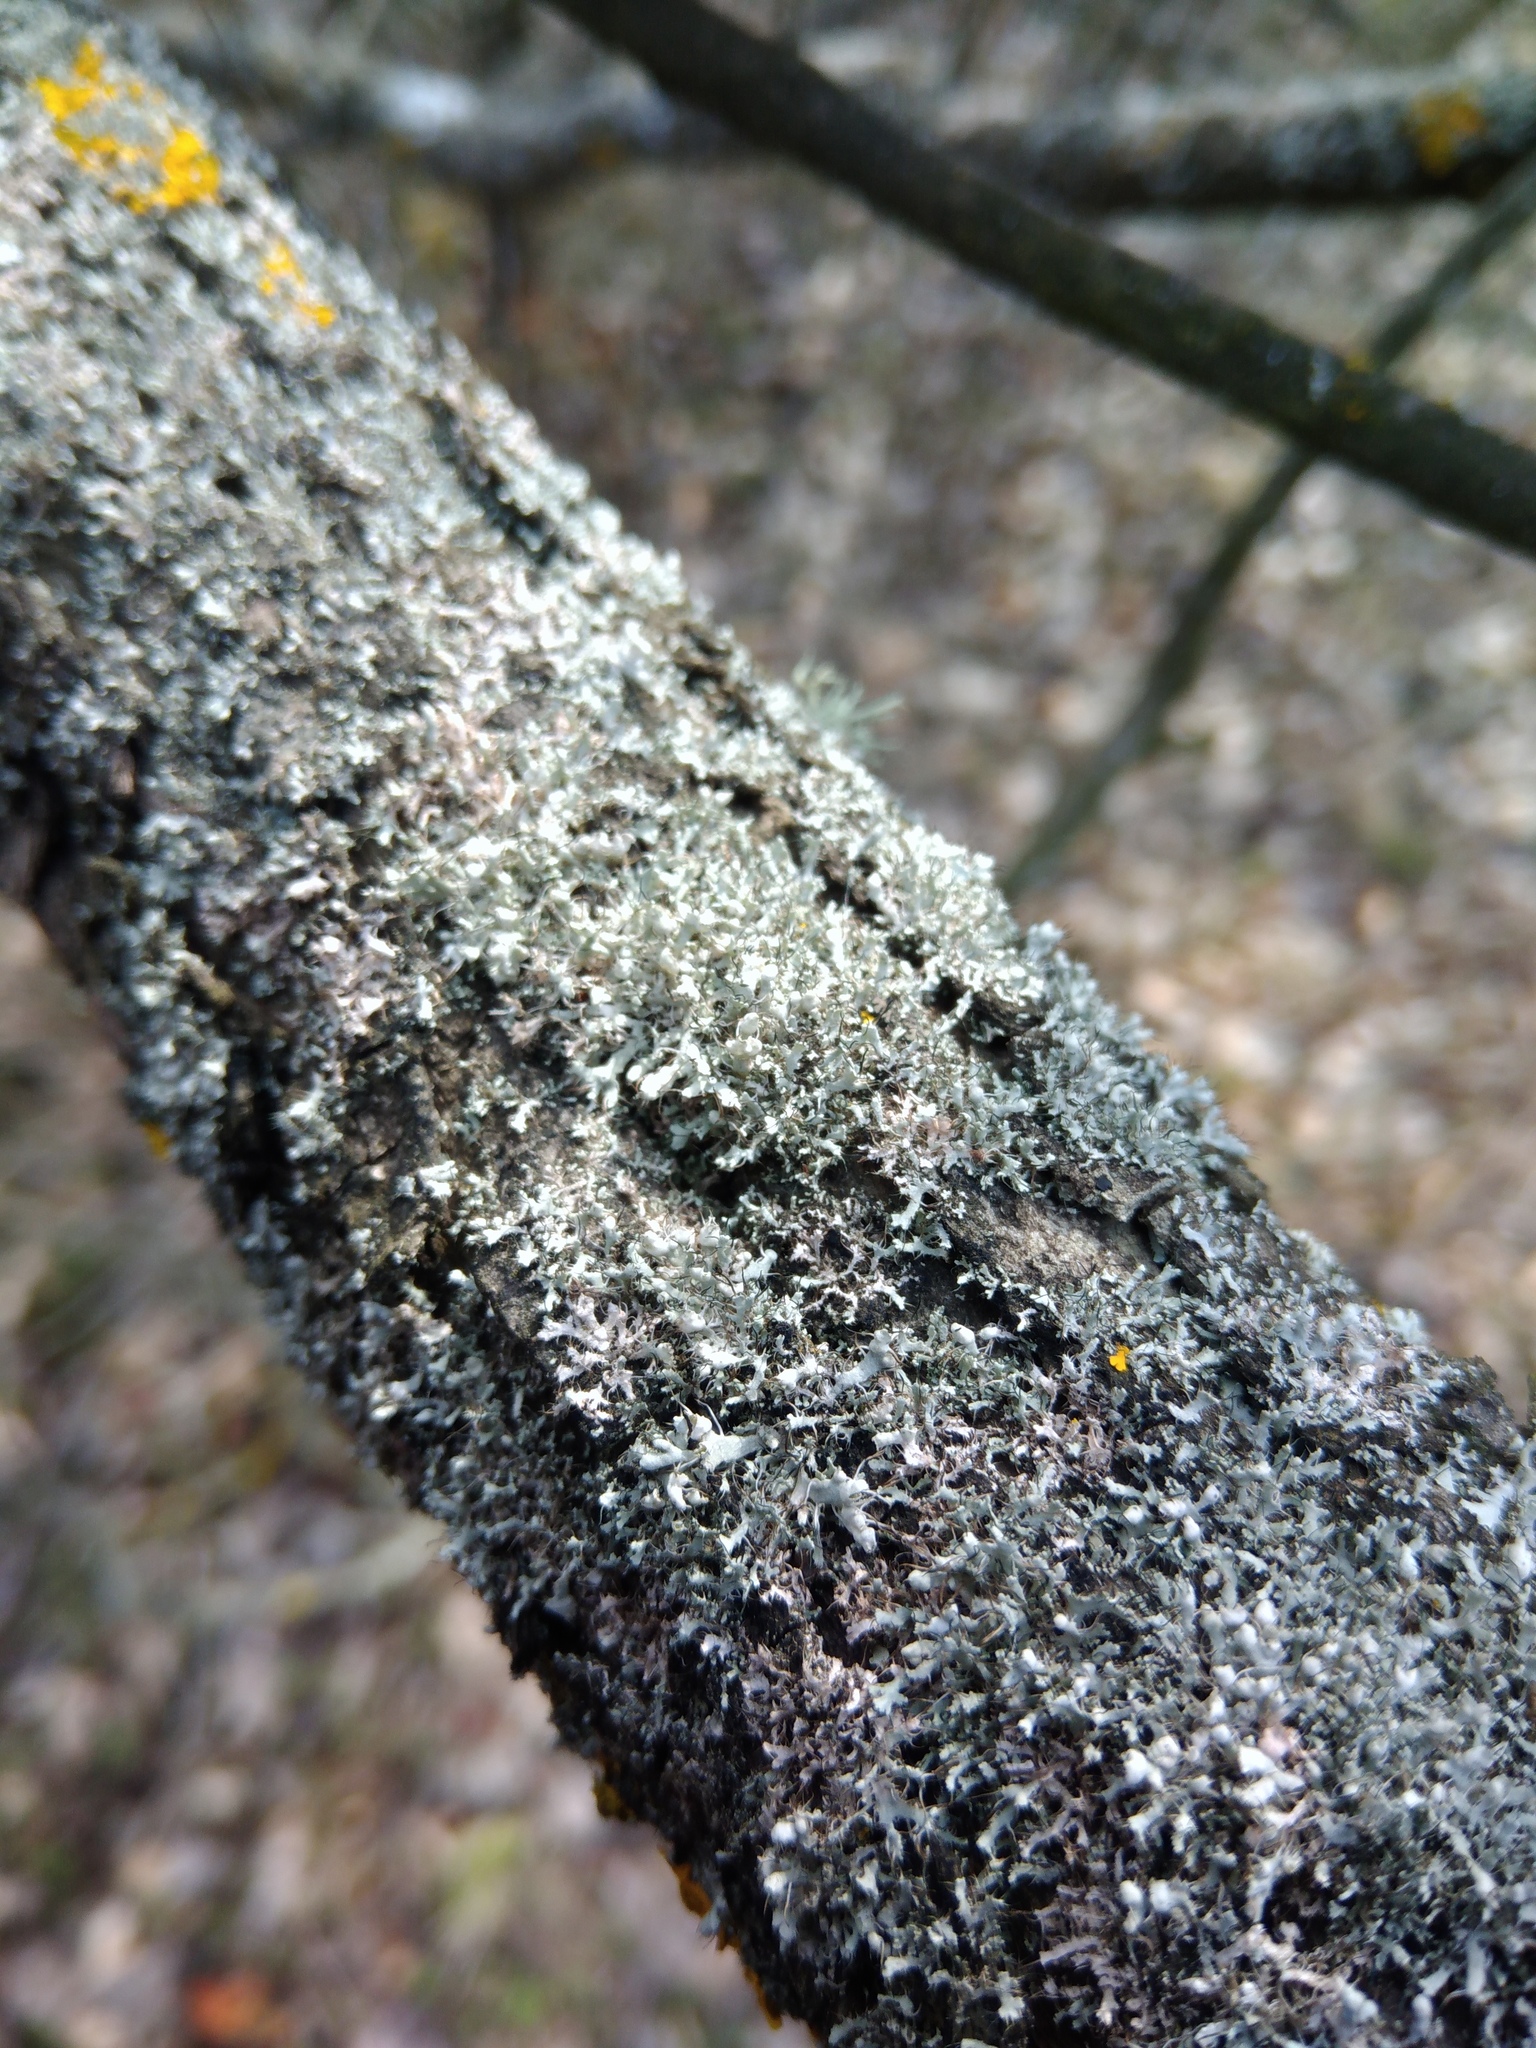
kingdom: Fungi
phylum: Ascomycota
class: Lecanoromycetes
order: Caliciales
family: Physciaceae
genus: Physcia
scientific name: Physcia adscendens
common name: Hooded rosette lichen
